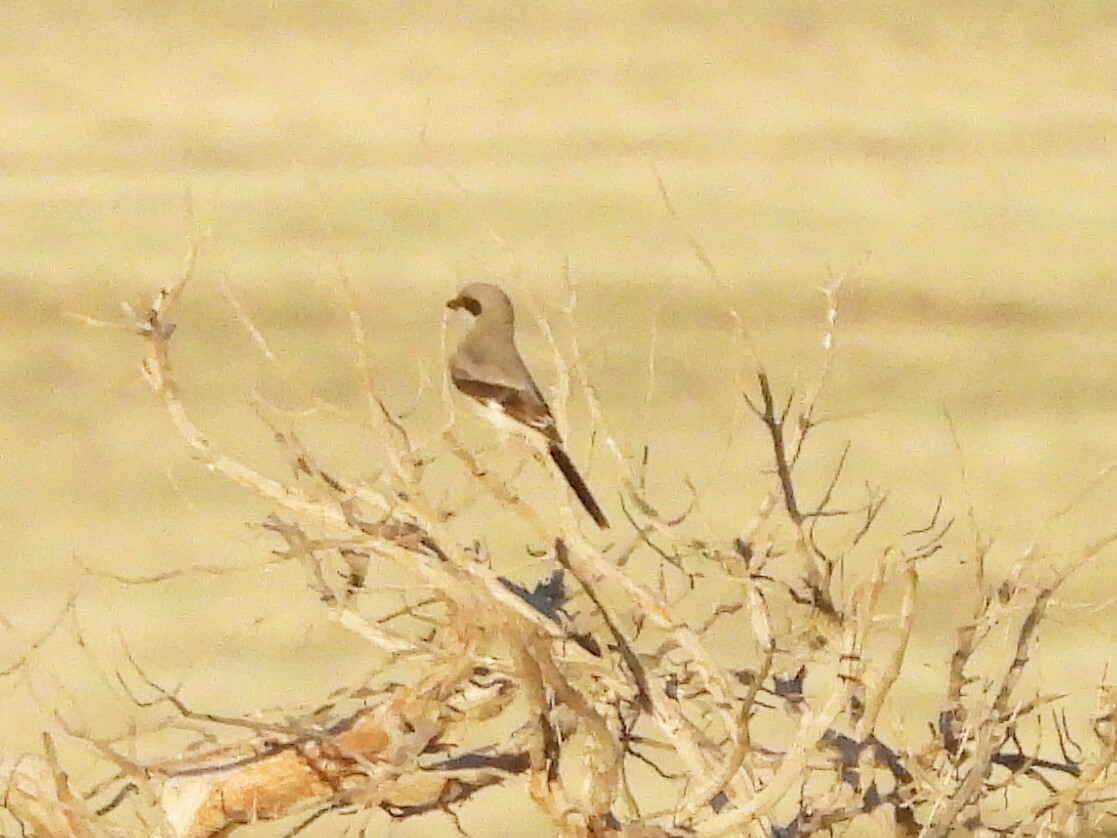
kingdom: Animalia
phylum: Chordata
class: Aves
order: Passeriformes
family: Laniidae
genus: Lanius
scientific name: Lanius ludovicianus
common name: Loggerhead shrike
